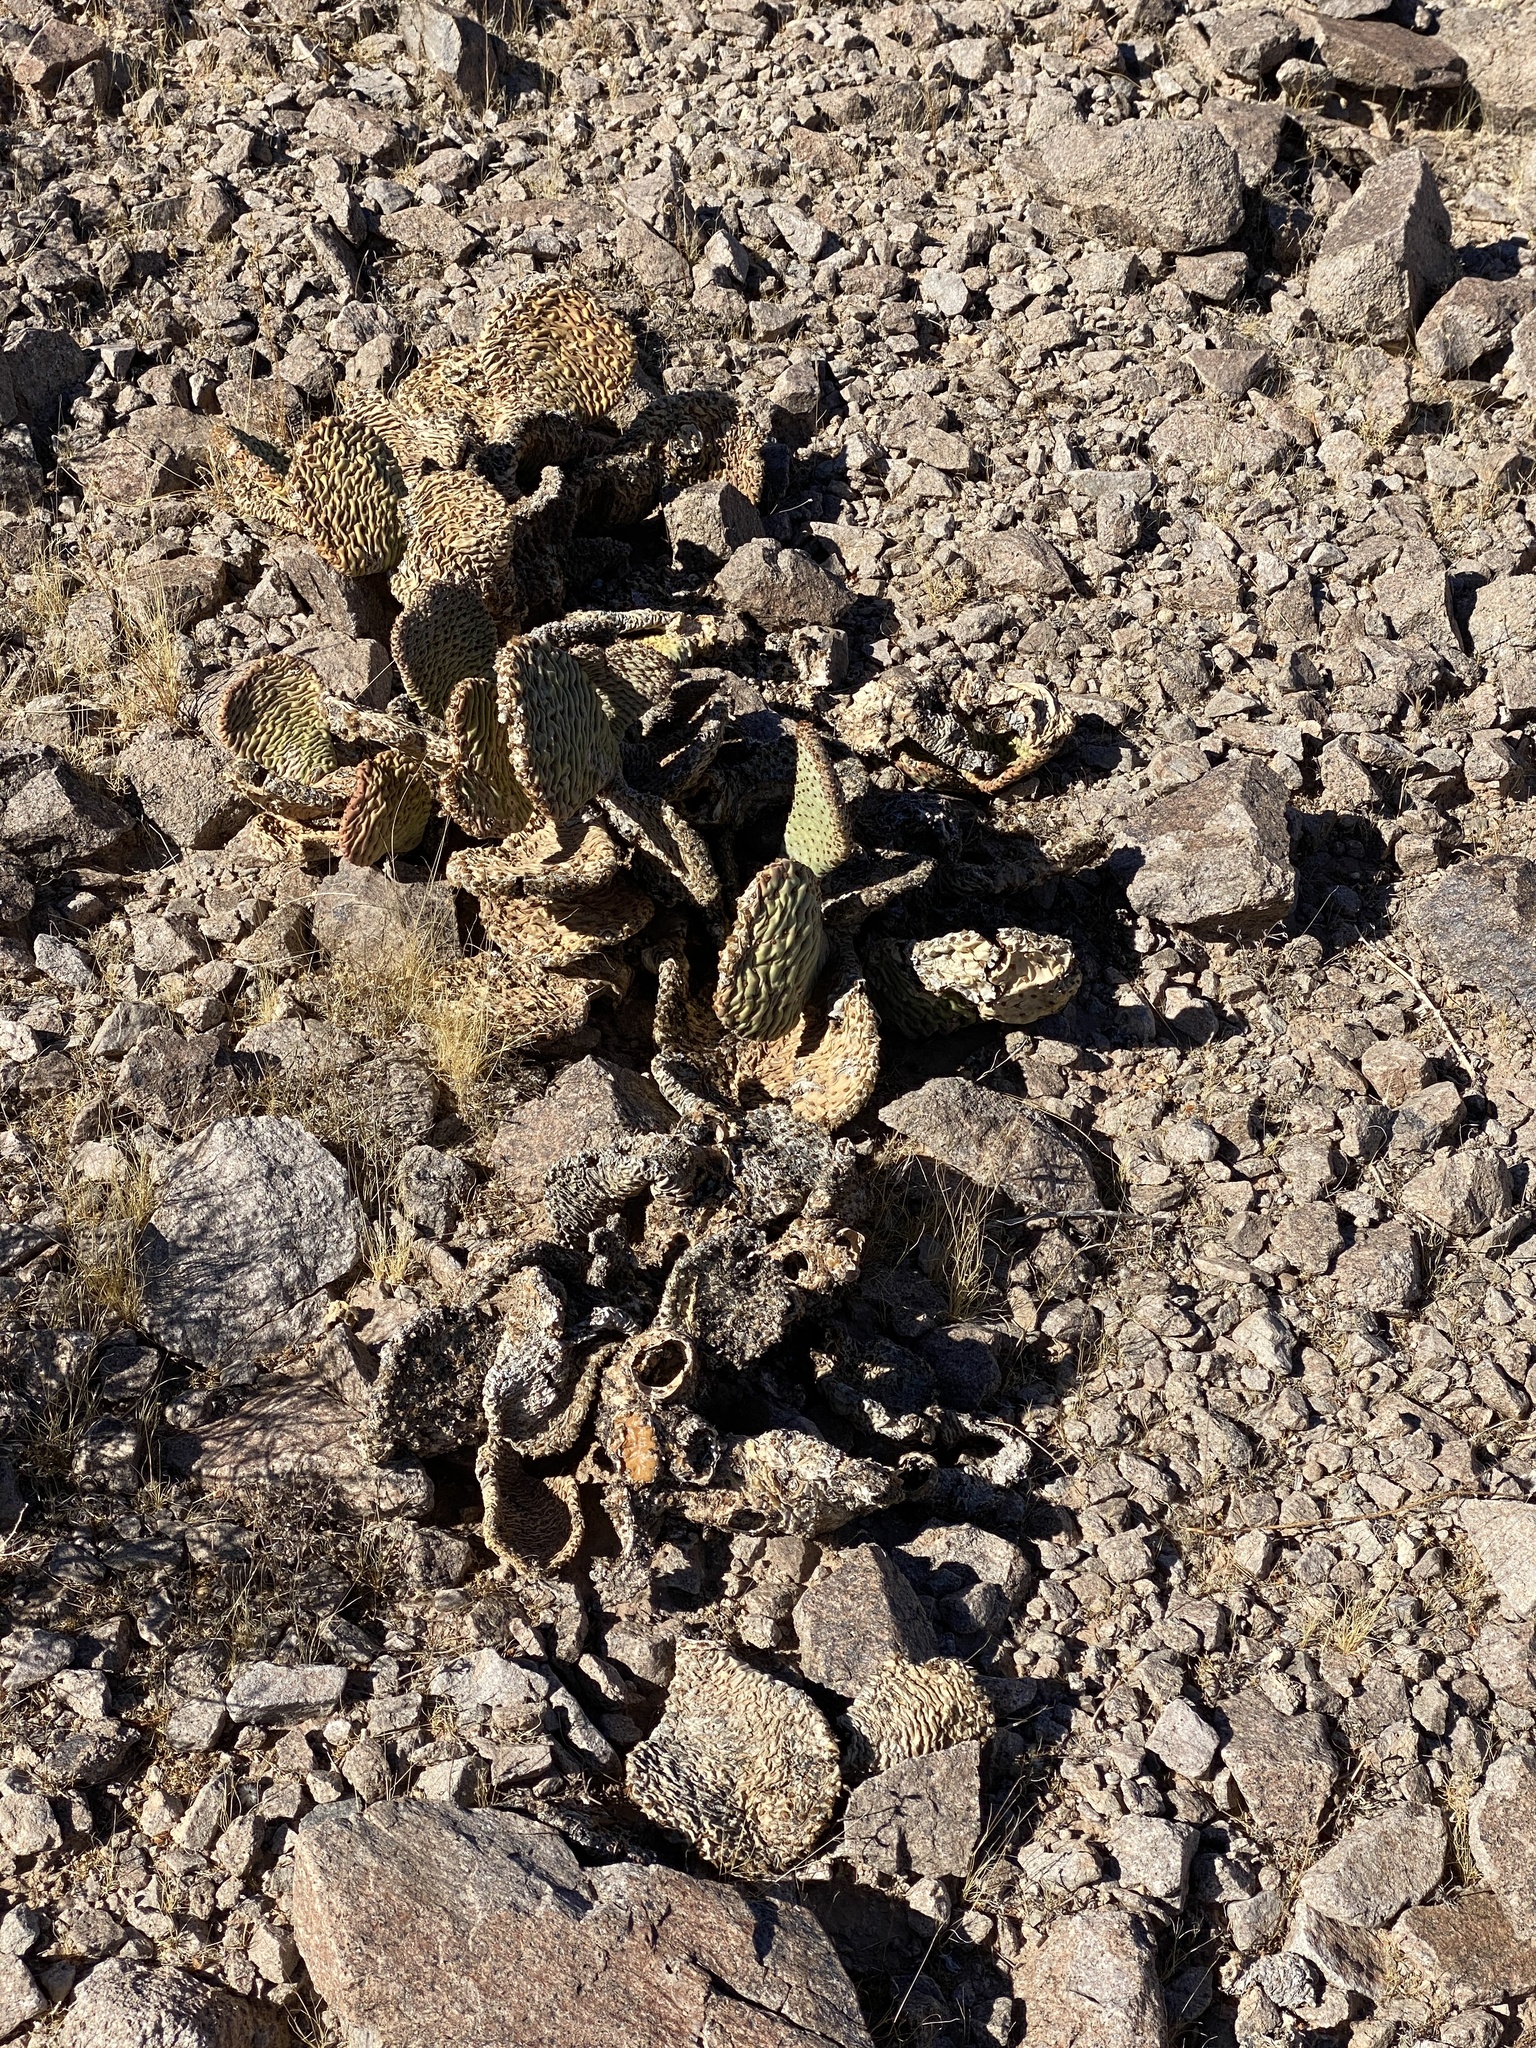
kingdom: Plantae
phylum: Tracheophyta
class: Magnoliopsida
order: Caryophyllales
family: Cactaceae
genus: Opuntia
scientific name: Opuntia basilaris
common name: Beavertail prickly-pear
